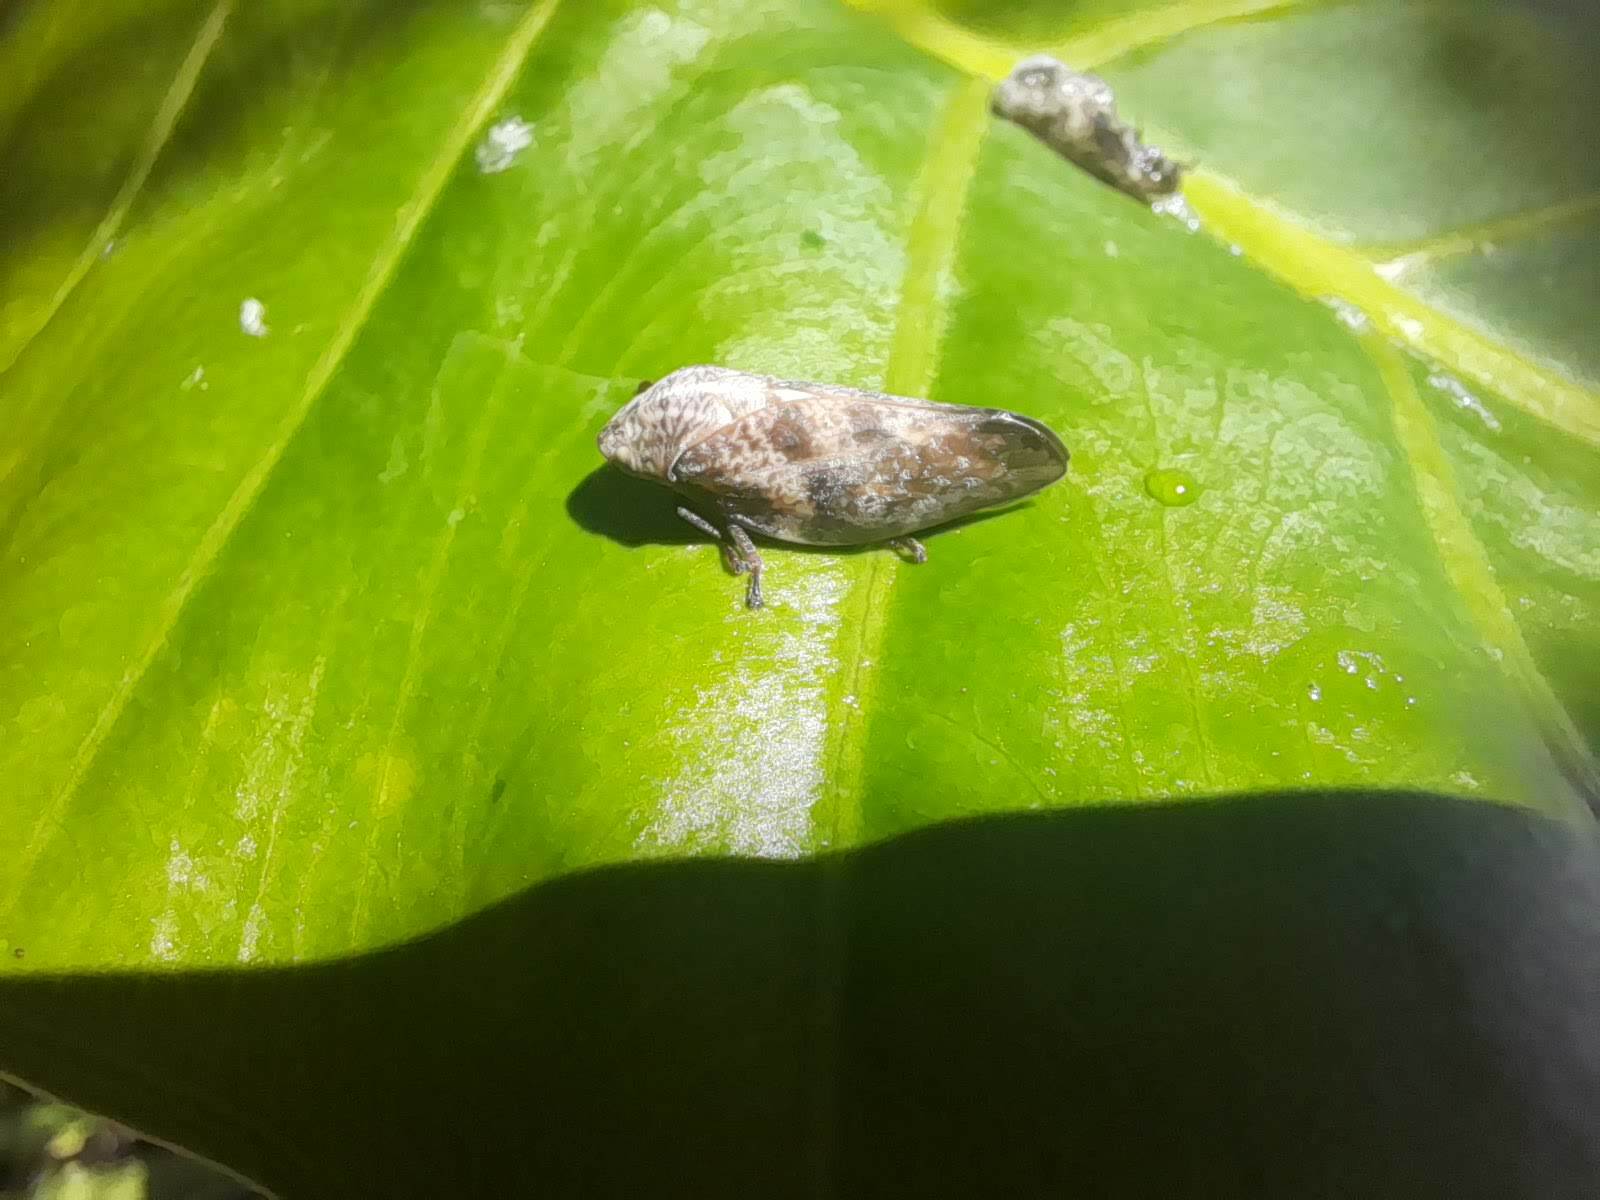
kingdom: Animalia
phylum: Arthropoda
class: Insecta
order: Hemiptera
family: Aphrophoridae
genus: Cephisus
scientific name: Cephisus siccifolius
